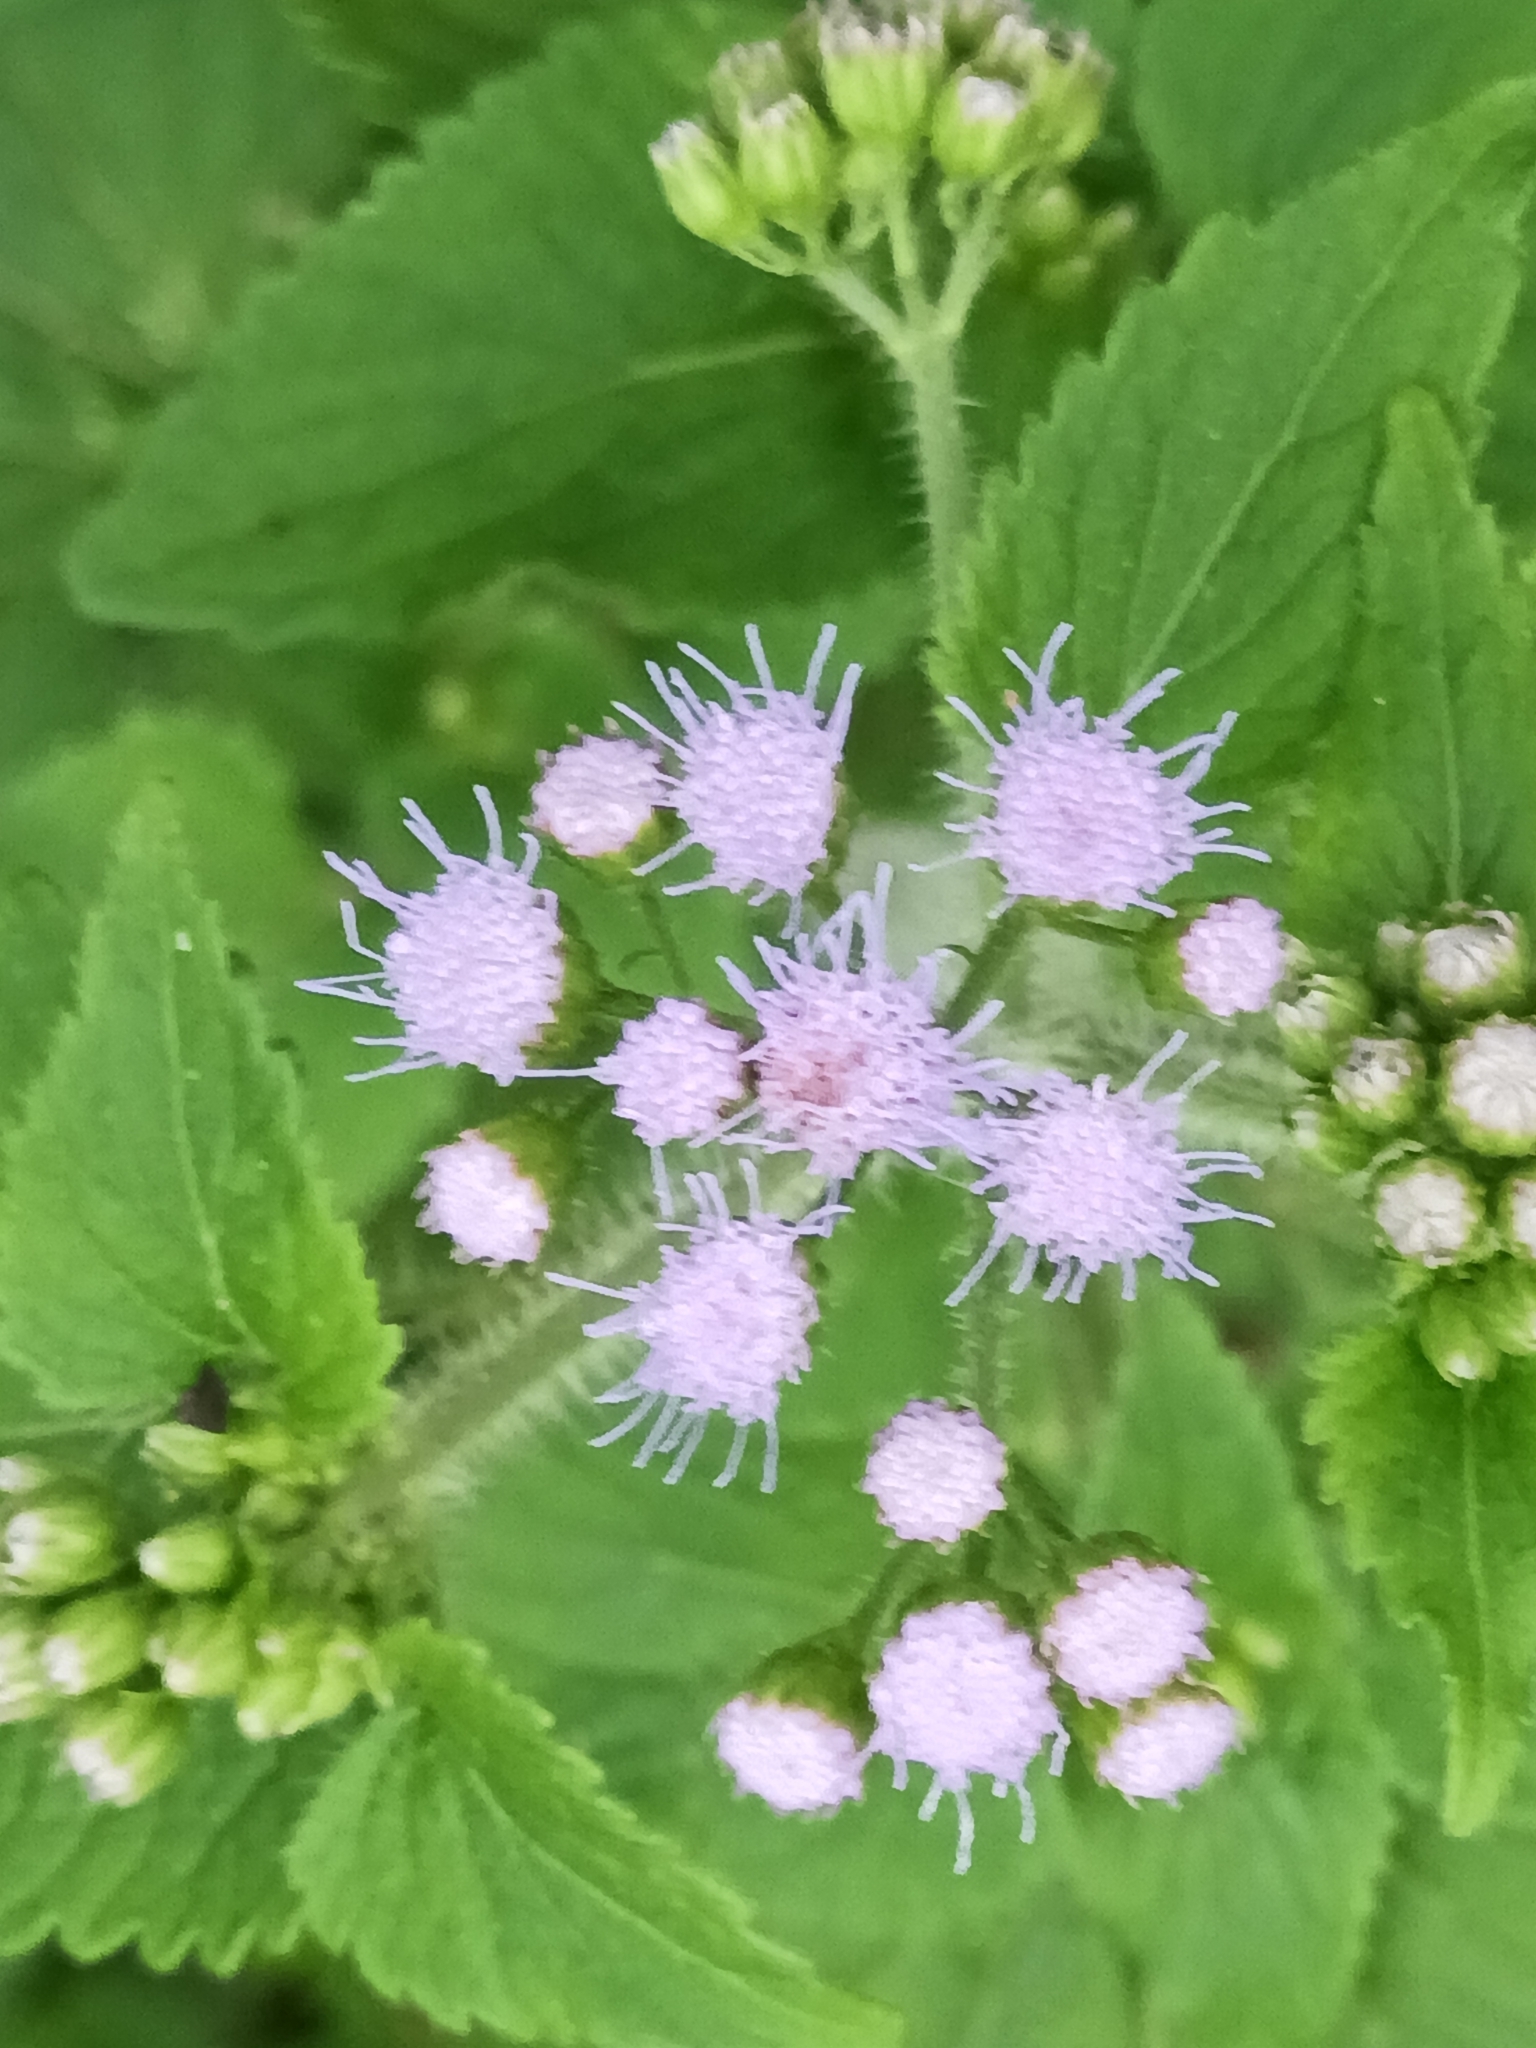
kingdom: Plantae
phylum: Tracheophyta
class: Magnoliopsida
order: Asterales
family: Asteraceae
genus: Ageratum
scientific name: Ageratum houstonianum
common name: Bluemink
